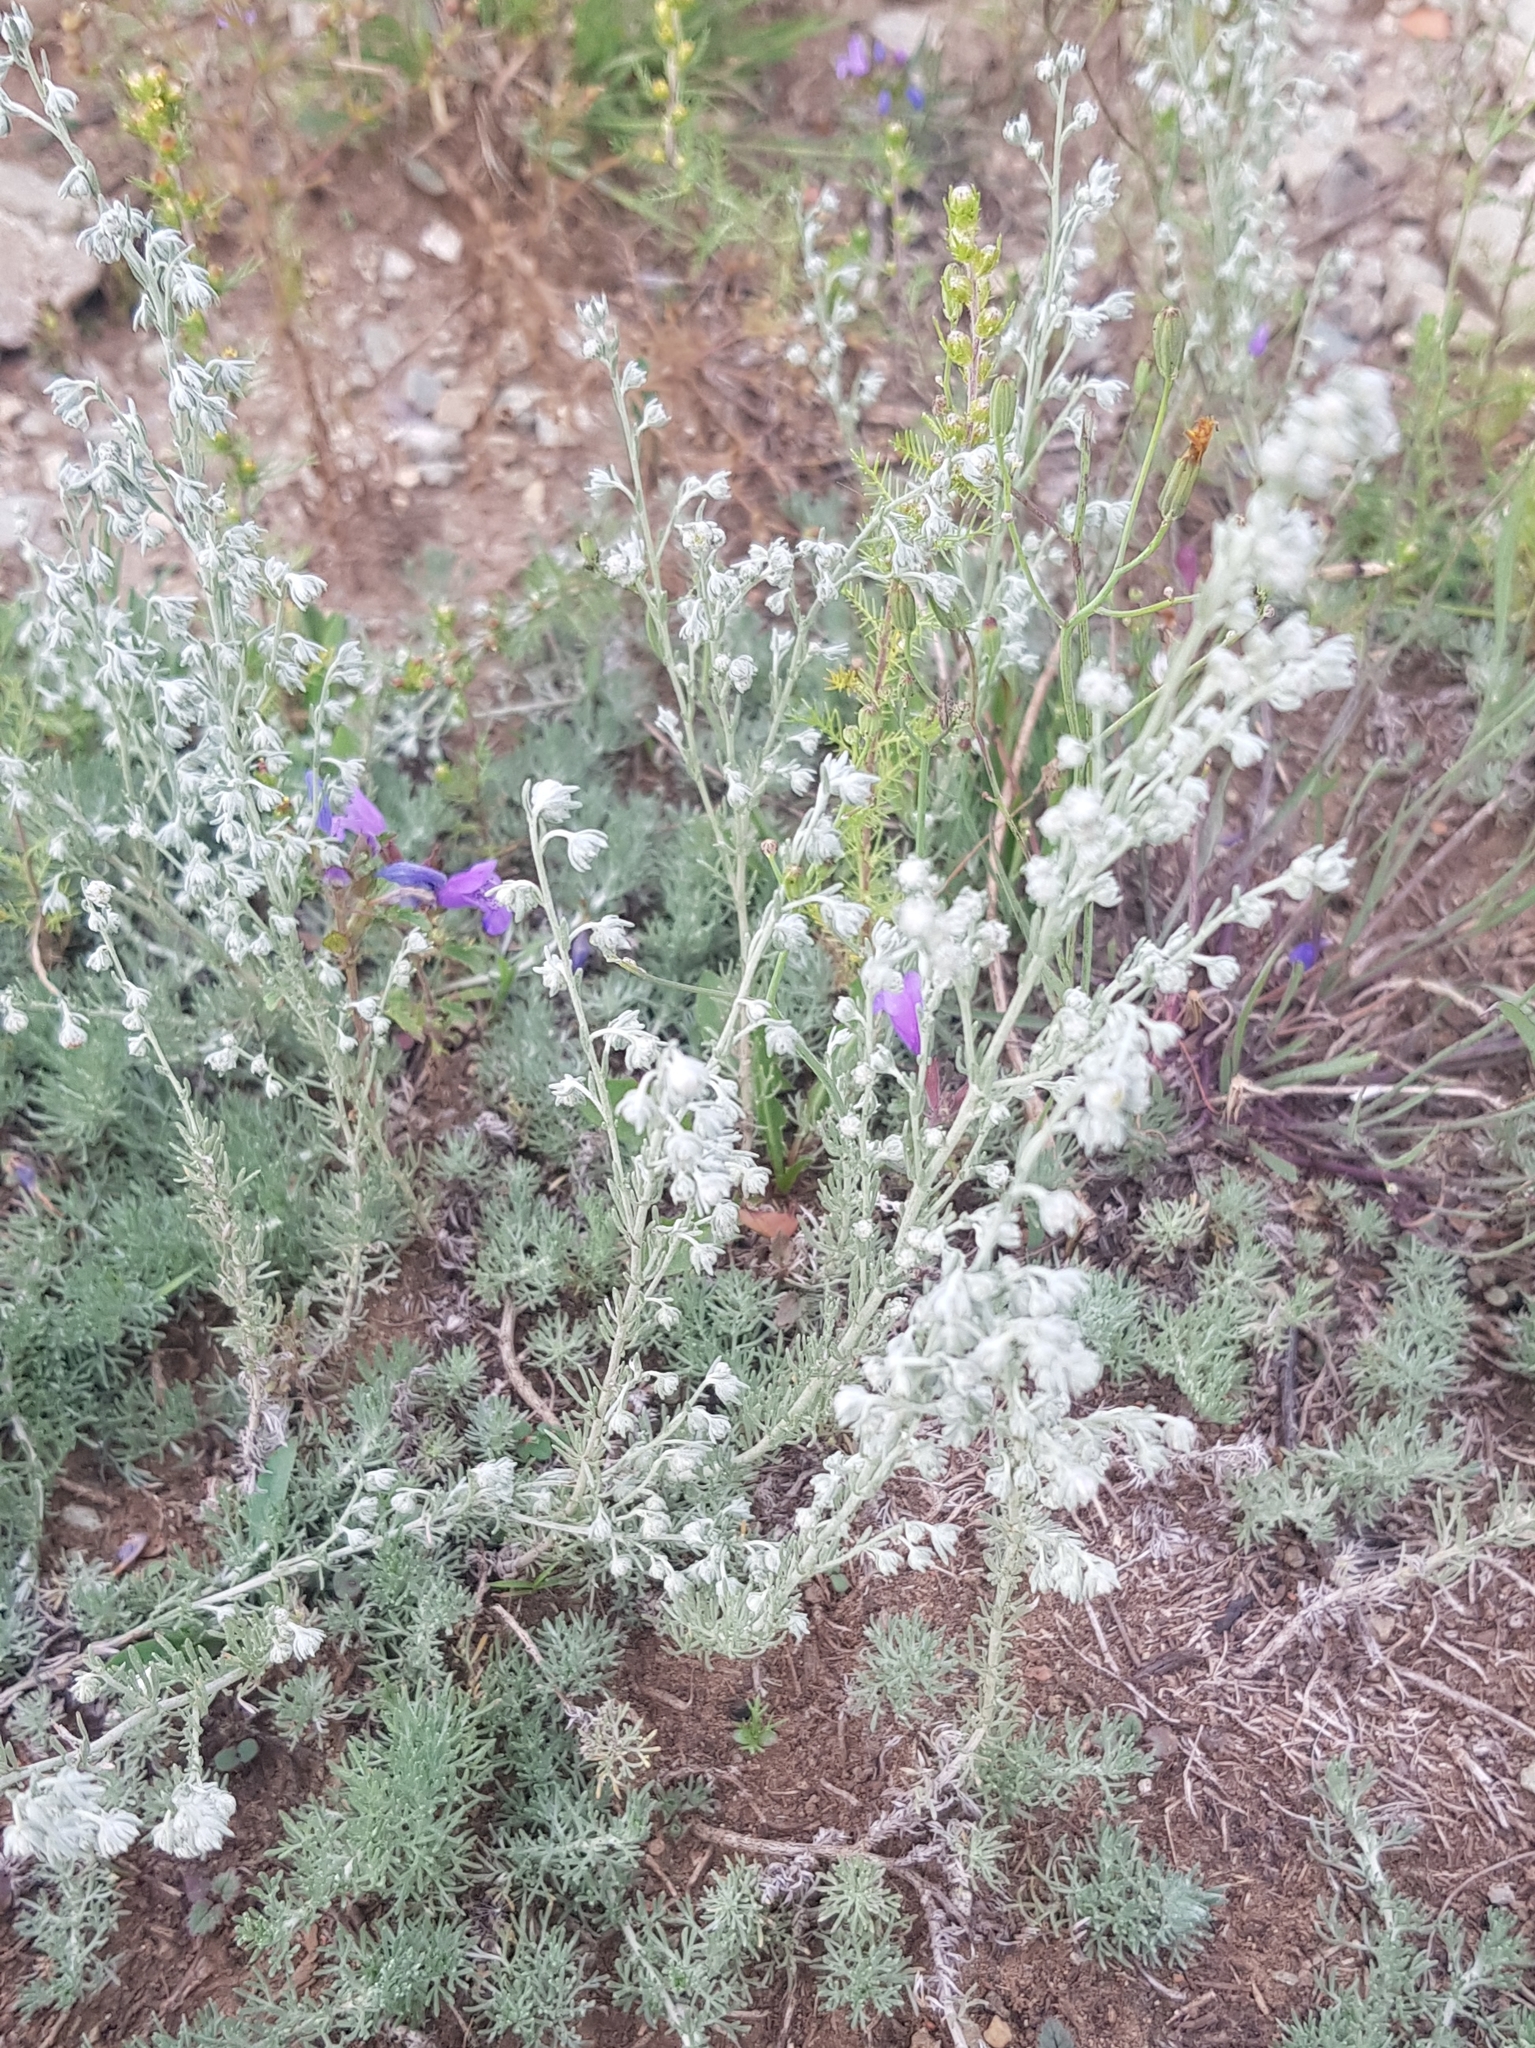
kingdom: Plantae
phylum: Tracheophyta
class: Magnoliopsida
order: Asterales
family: Asteraceae
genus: Artemisia
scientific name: Artemisia frigida
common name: Prairie sagewort
